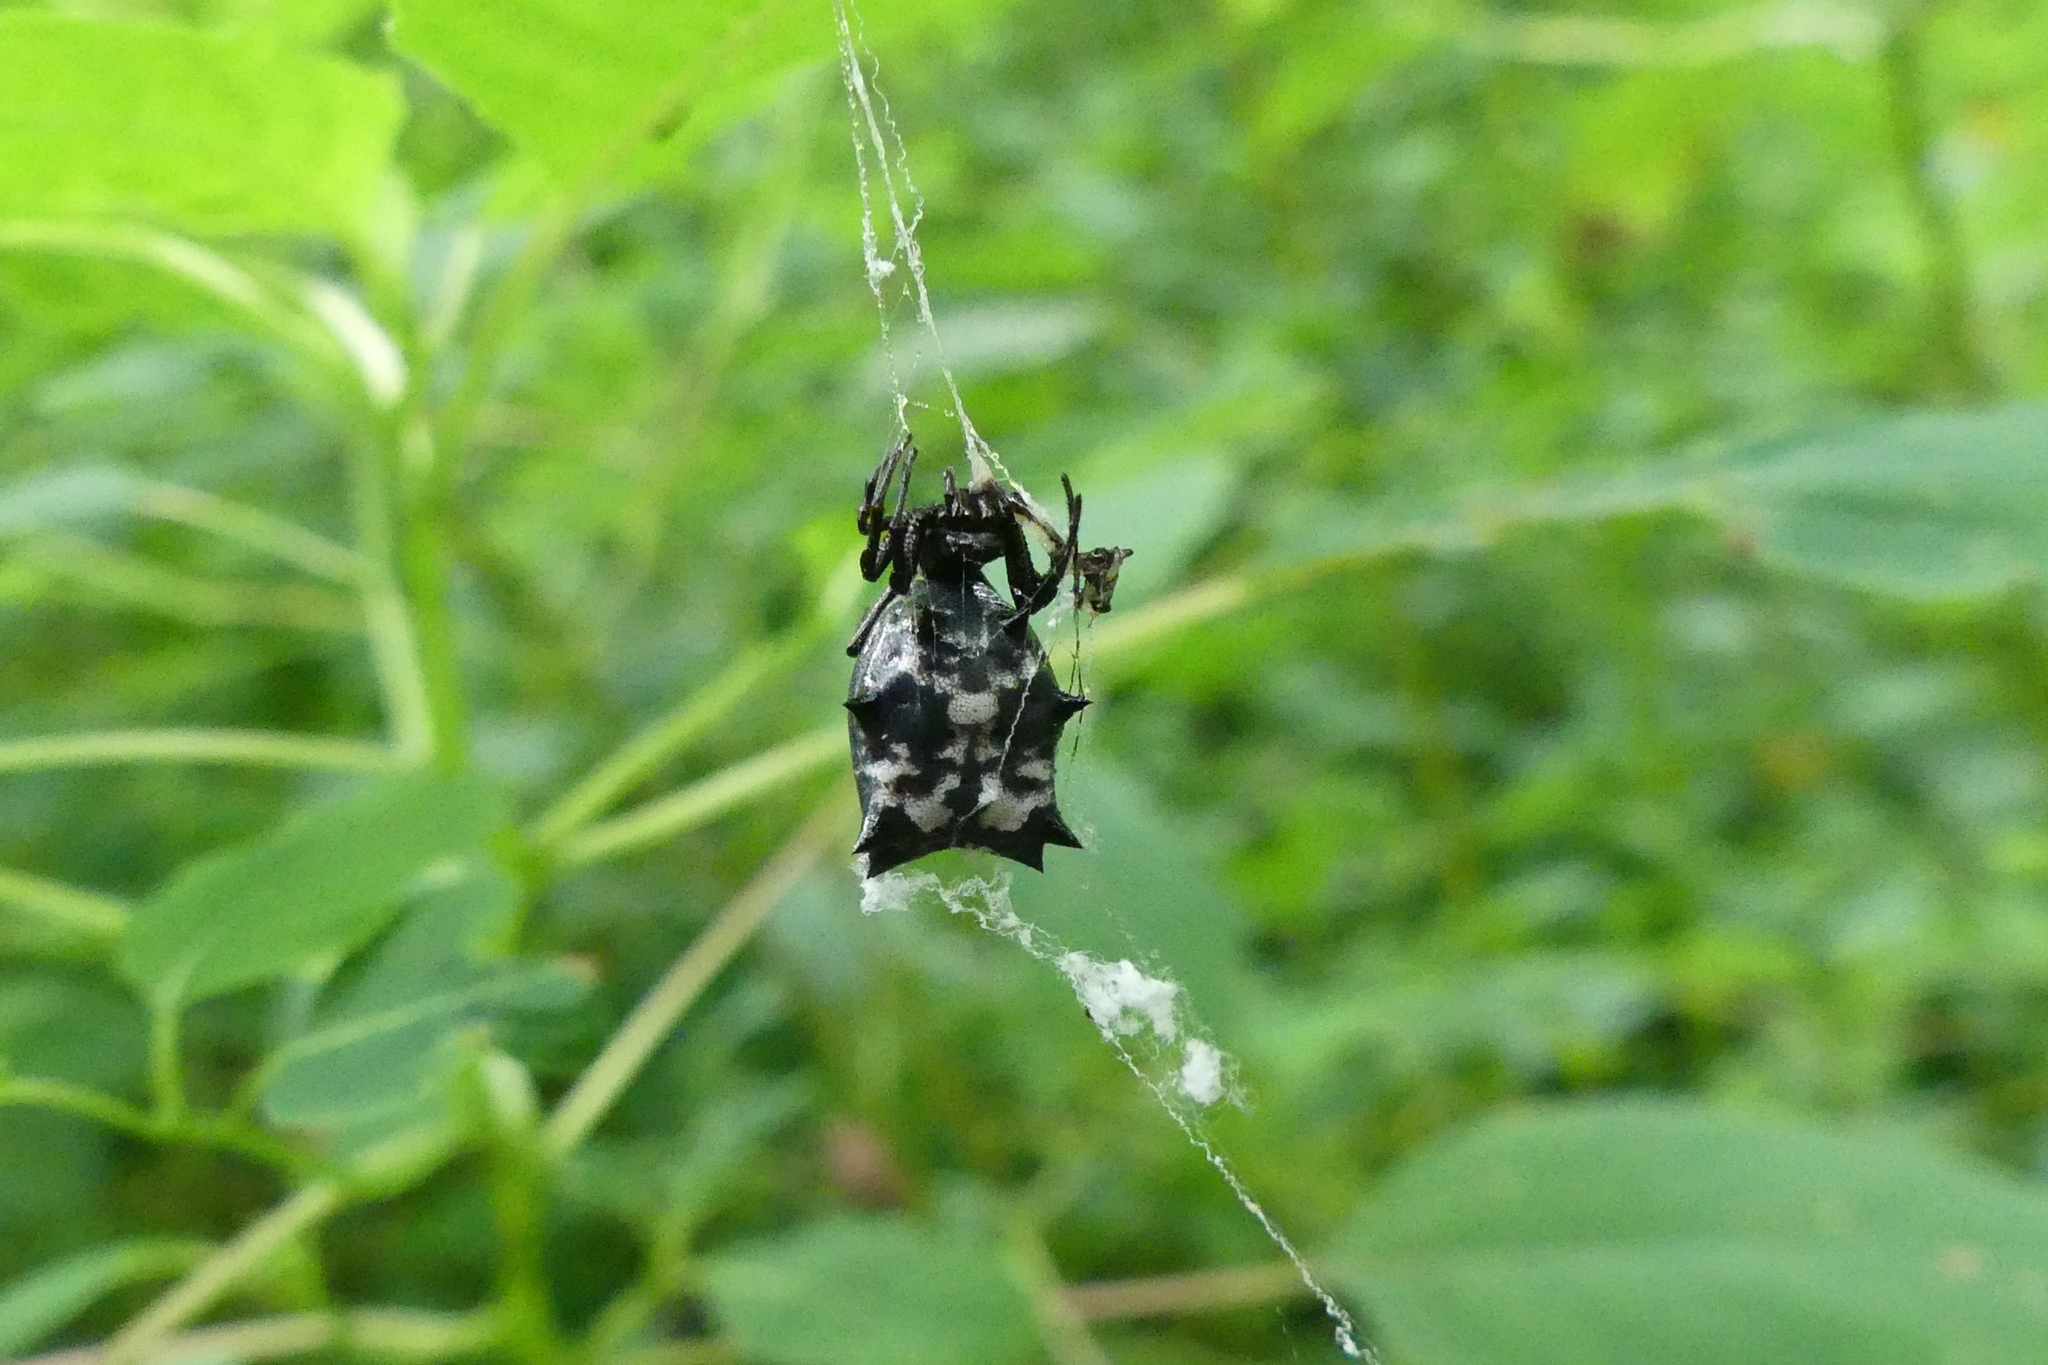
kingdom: Animalia
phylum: Arthropoda
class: Arachnida
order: Araneae
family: Araneidae
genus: Micrathena
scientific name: Micrathena gracilis
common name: Orb weavers
